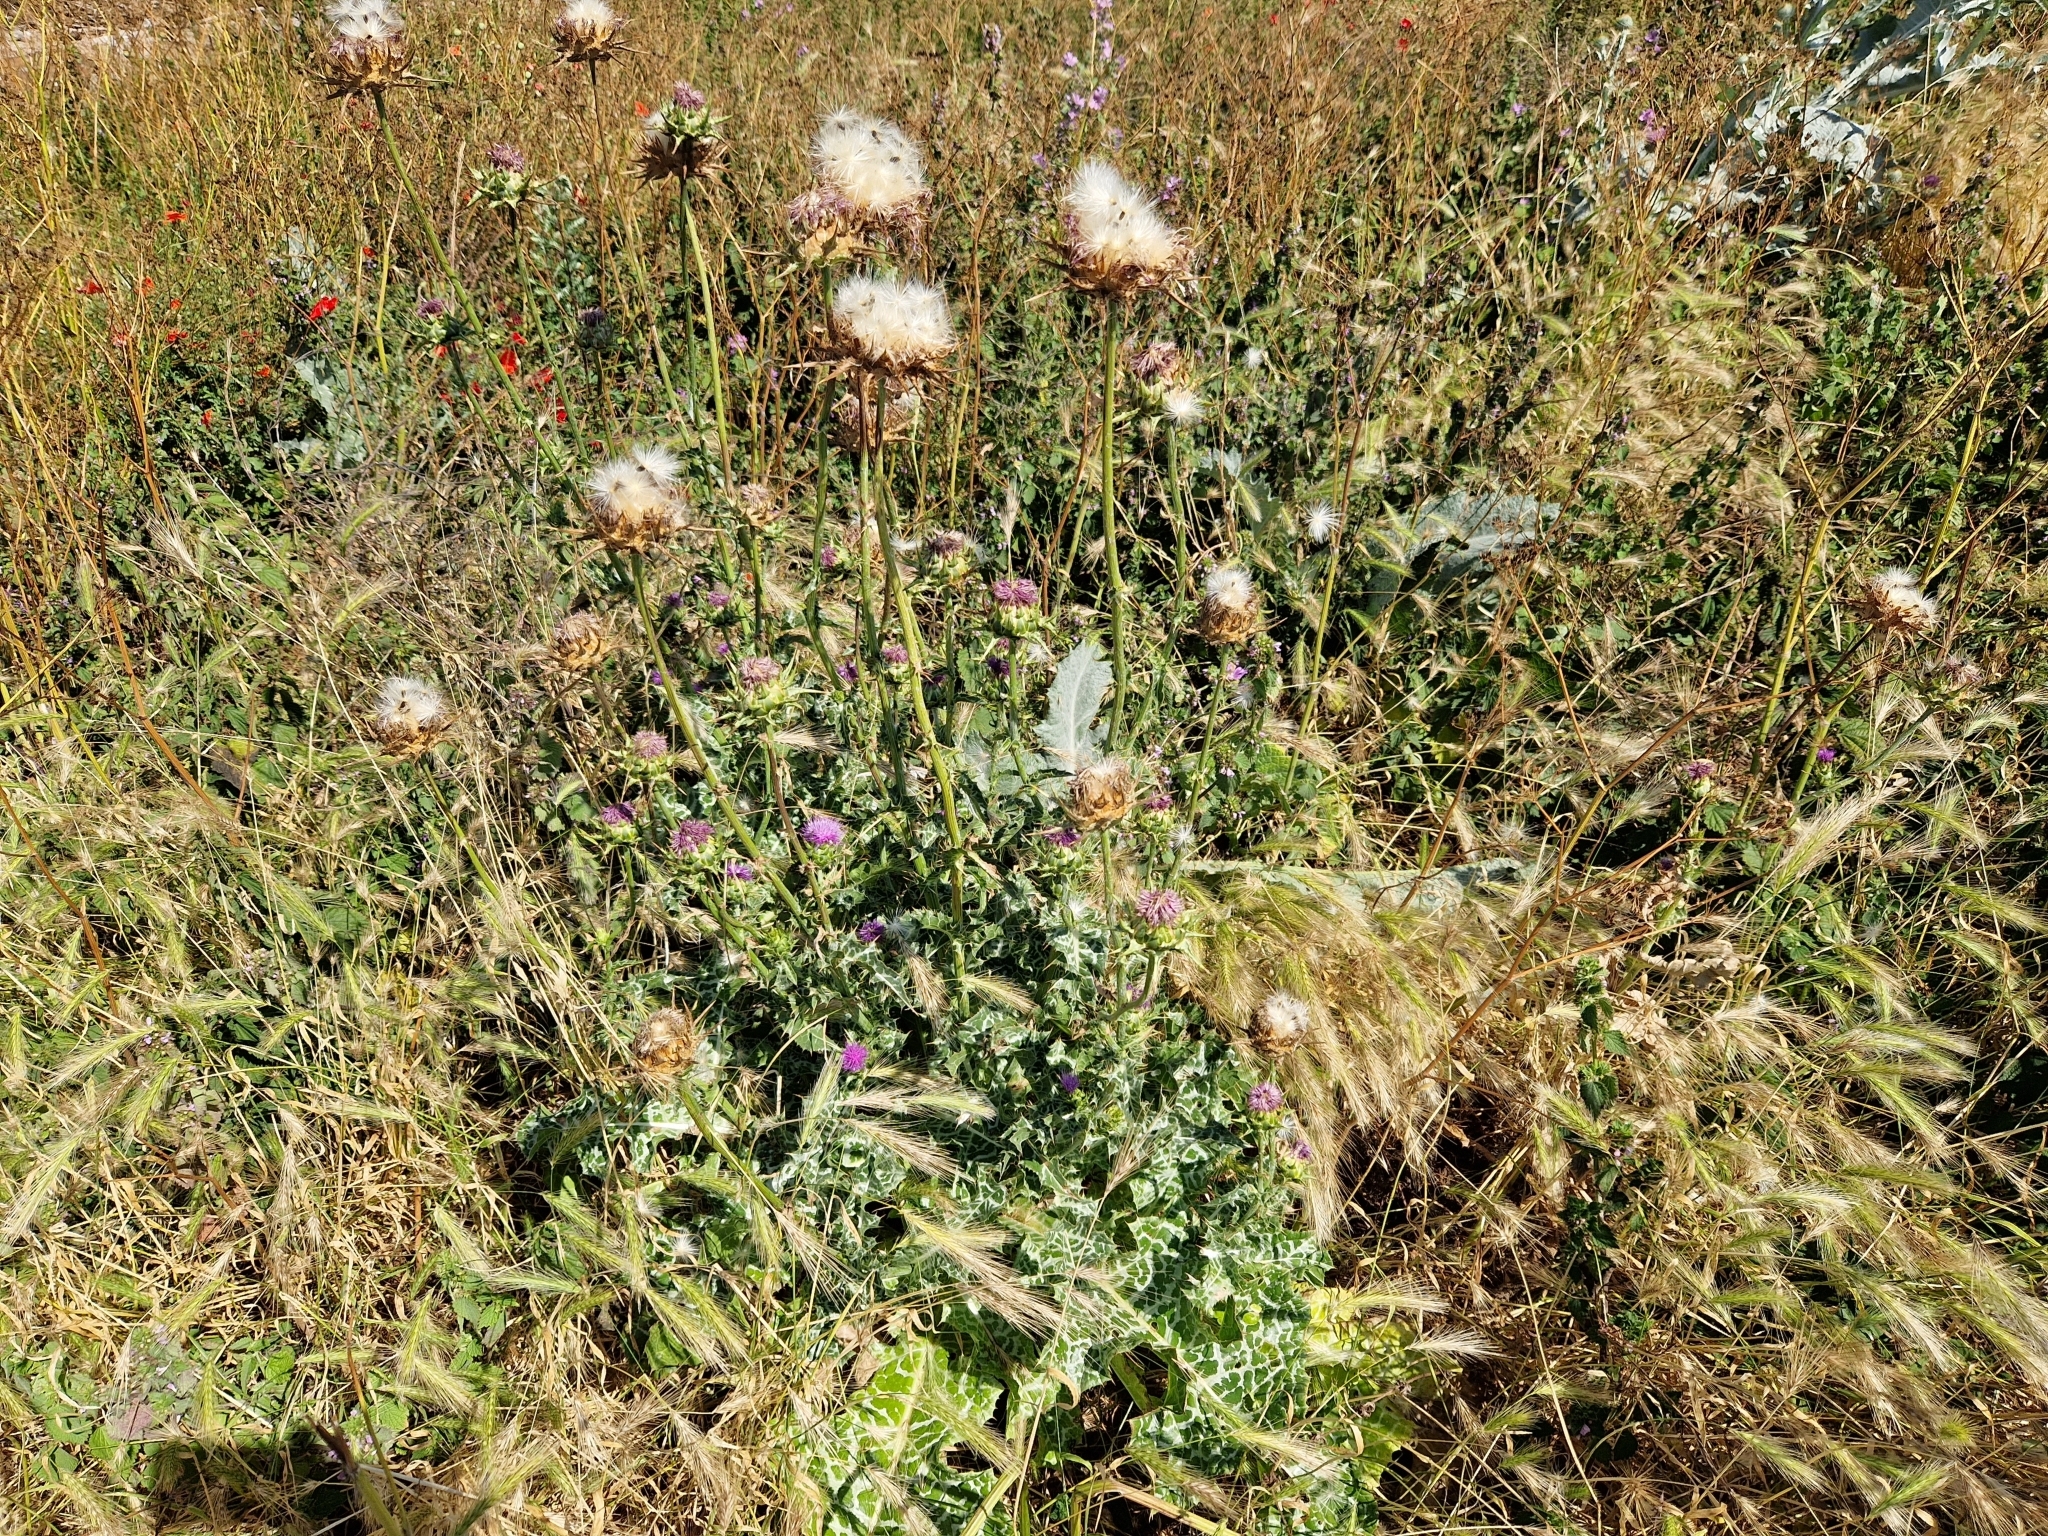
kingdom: Plantae
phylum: Tracheophyta
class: Magnoliopsida
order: Asterales
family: Asteraceae
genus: Silybum
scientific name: Silybum marianum
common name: Milk thistle
